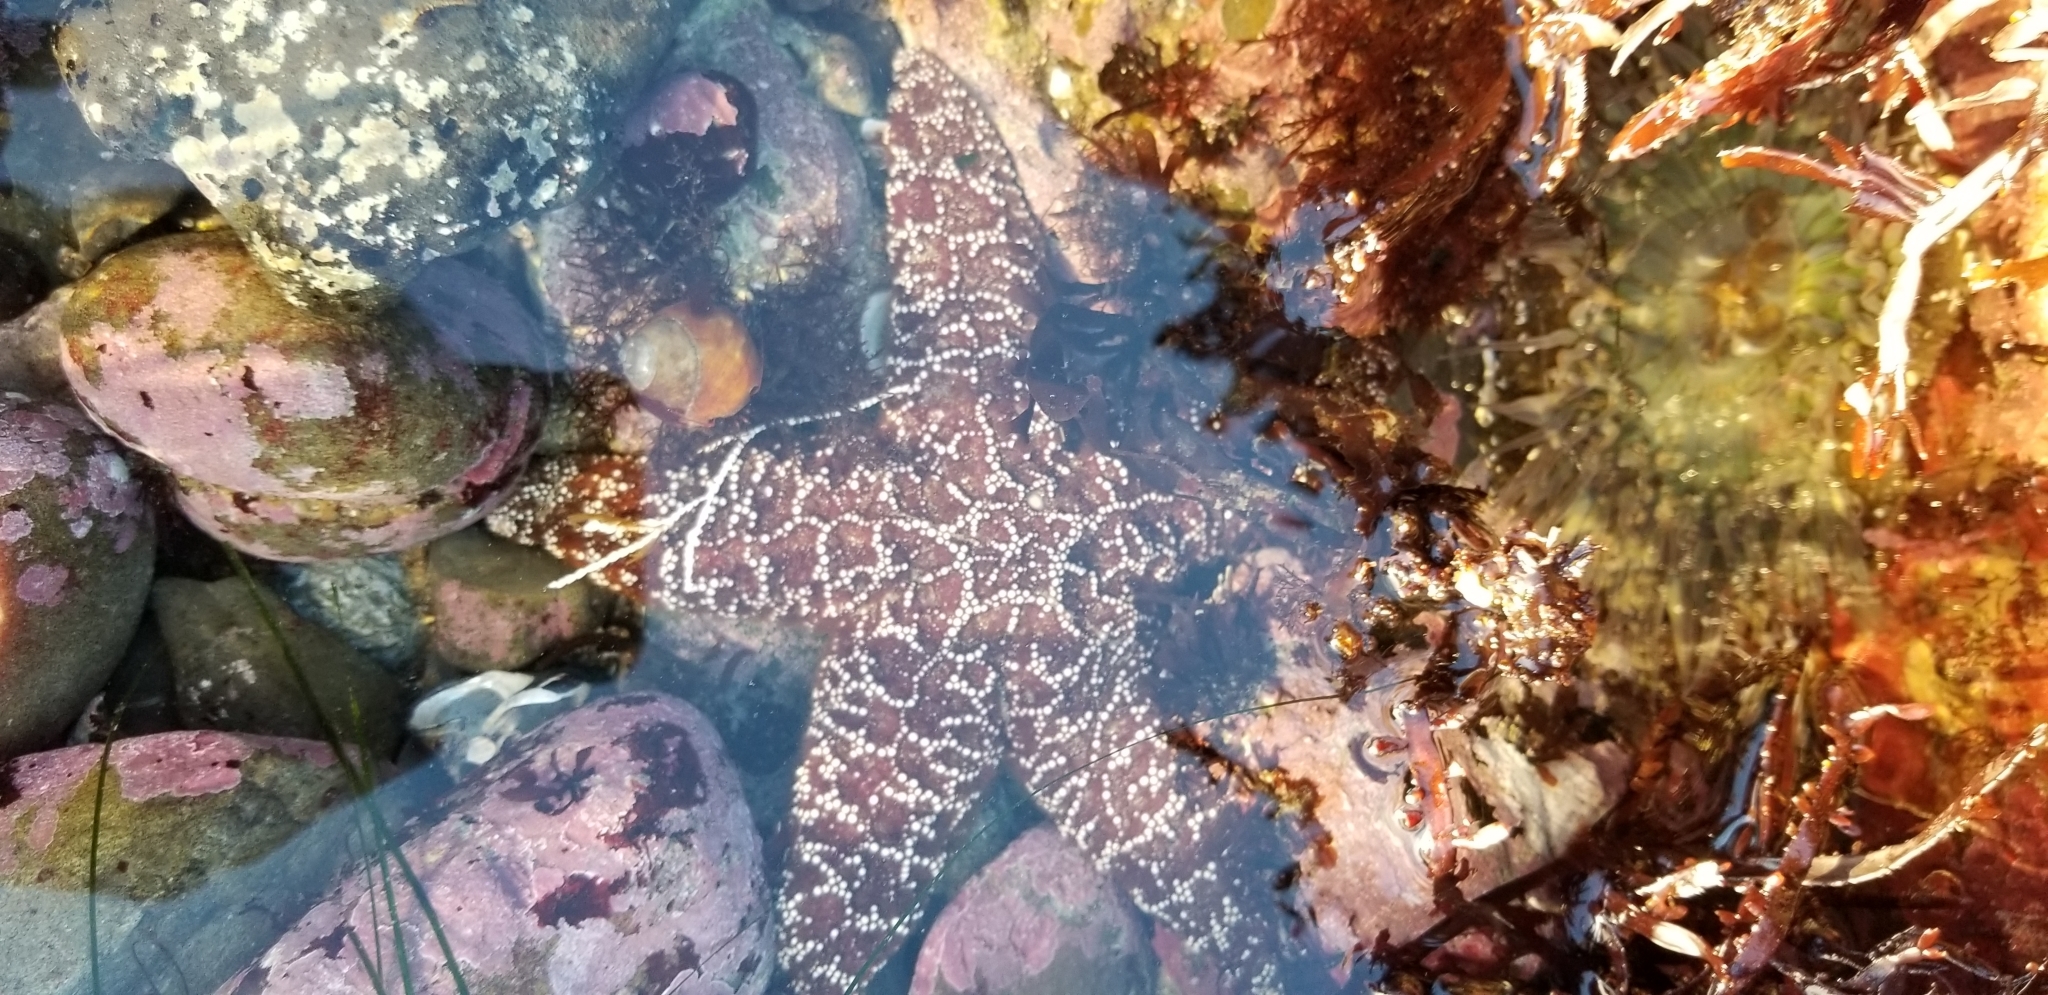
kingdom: Animalia
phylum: Echinodermata
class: Asteroidea
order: Forcipulatida
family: Asteriidae
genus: Pisaster
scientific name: Pisaster ochraceus
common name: Ochre stars
